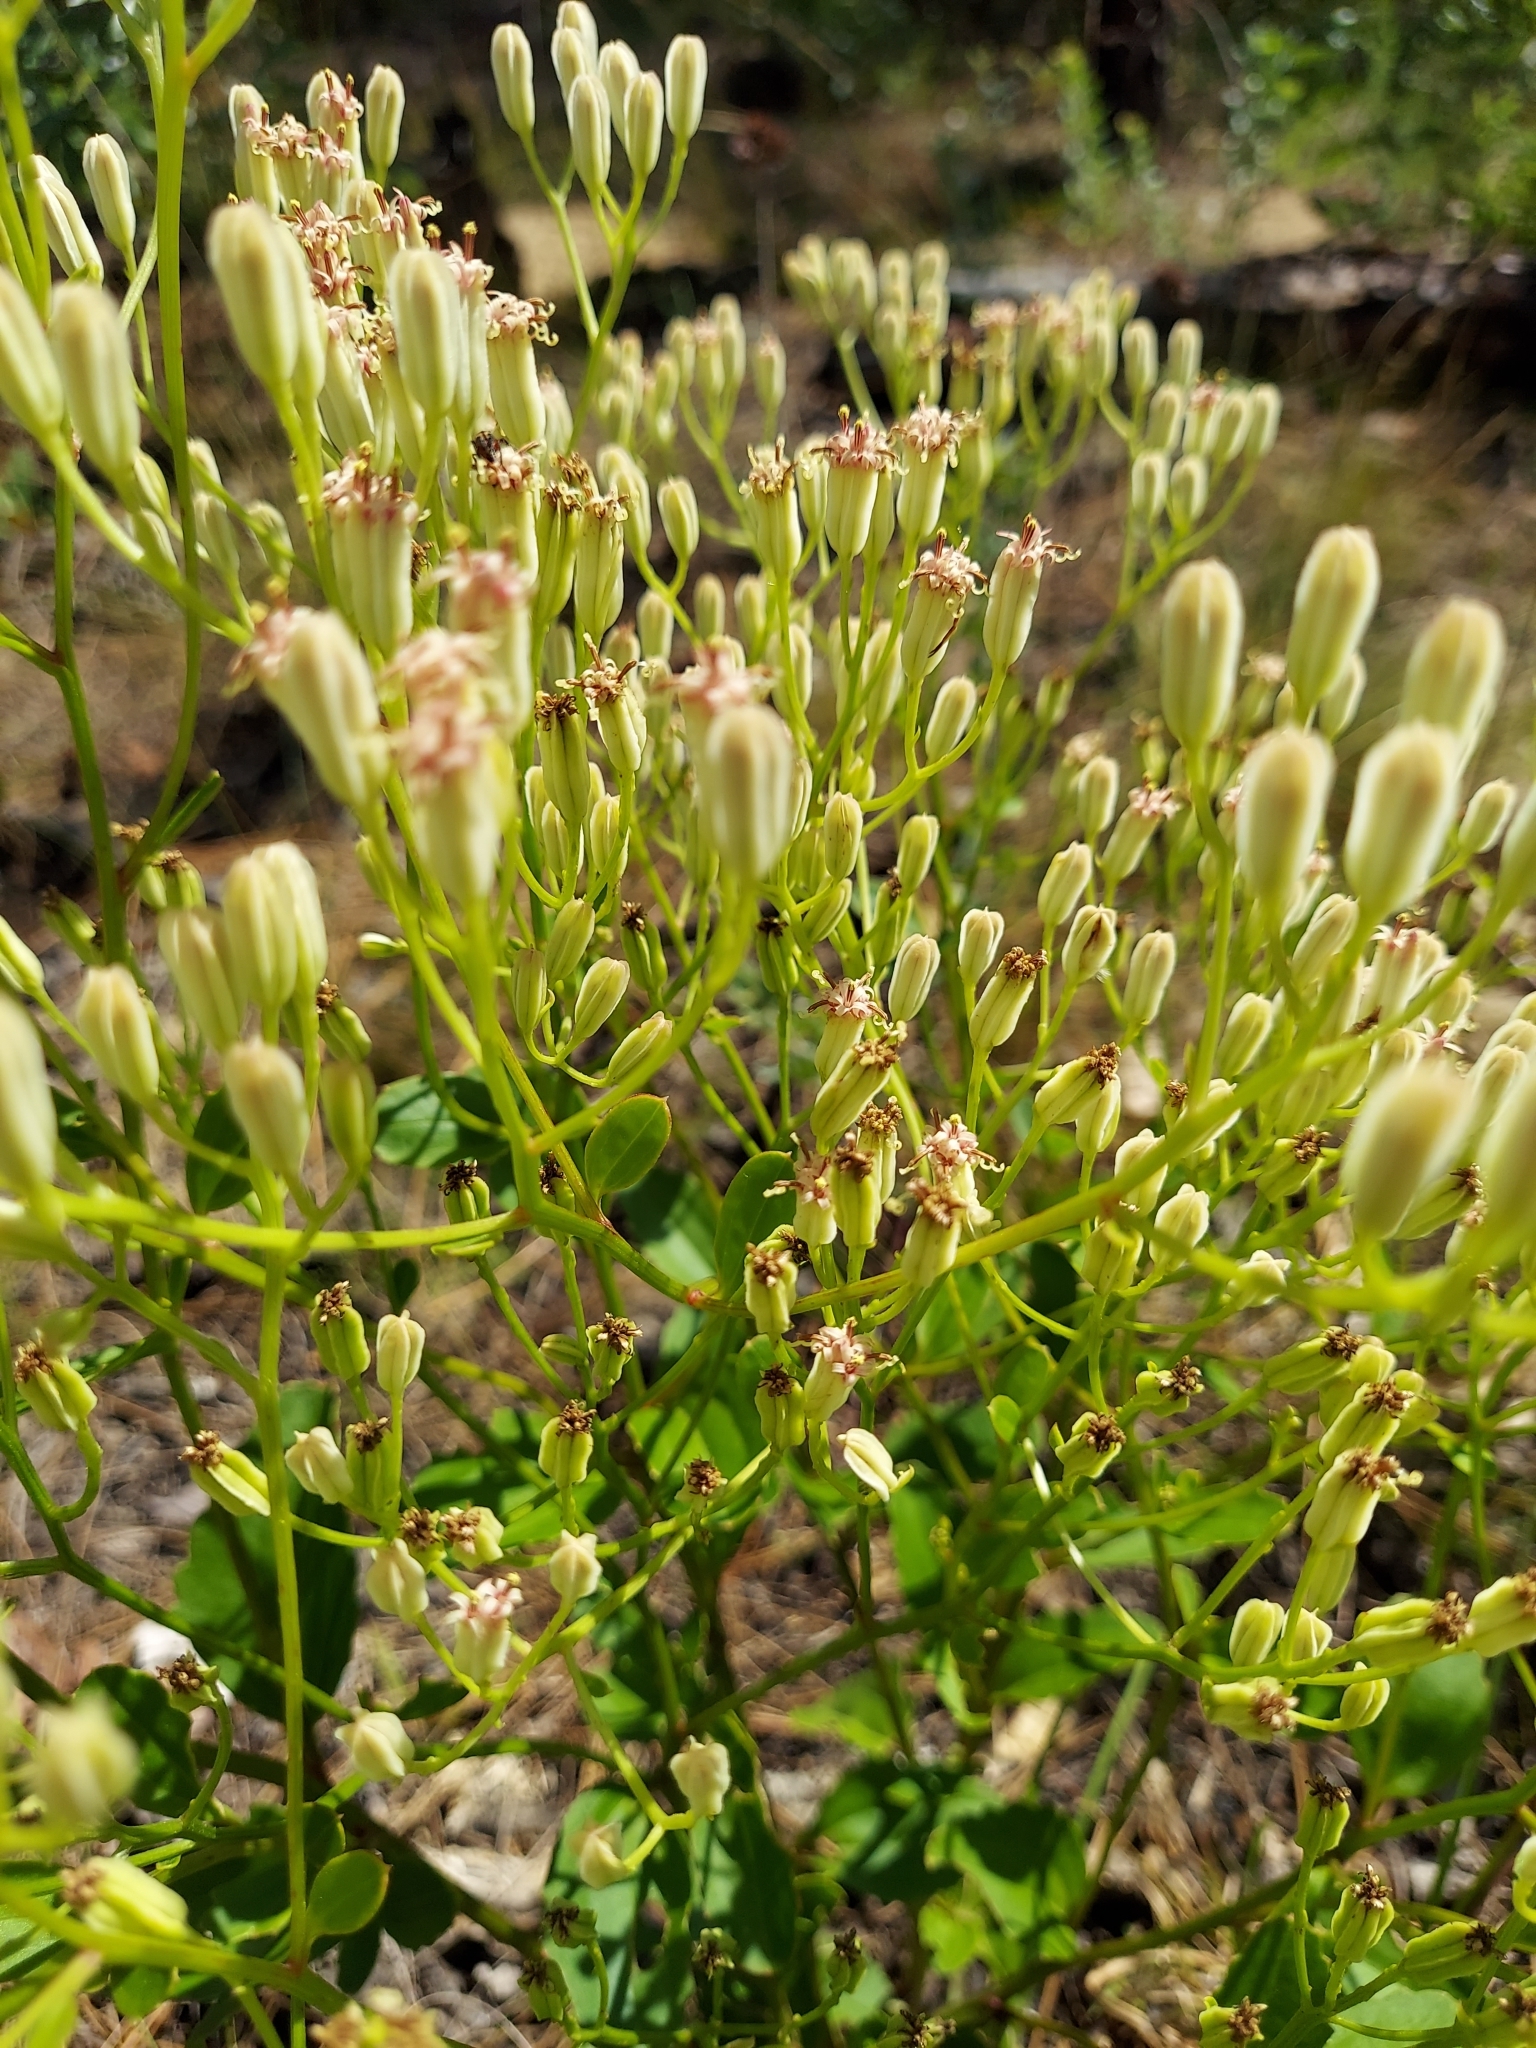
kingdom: Plantae
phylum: Tracheophyta
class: Magnoliopsida
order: Asterales
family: Asteraceae
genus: Arnoglossum
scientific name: Arnoglossum floridanum
